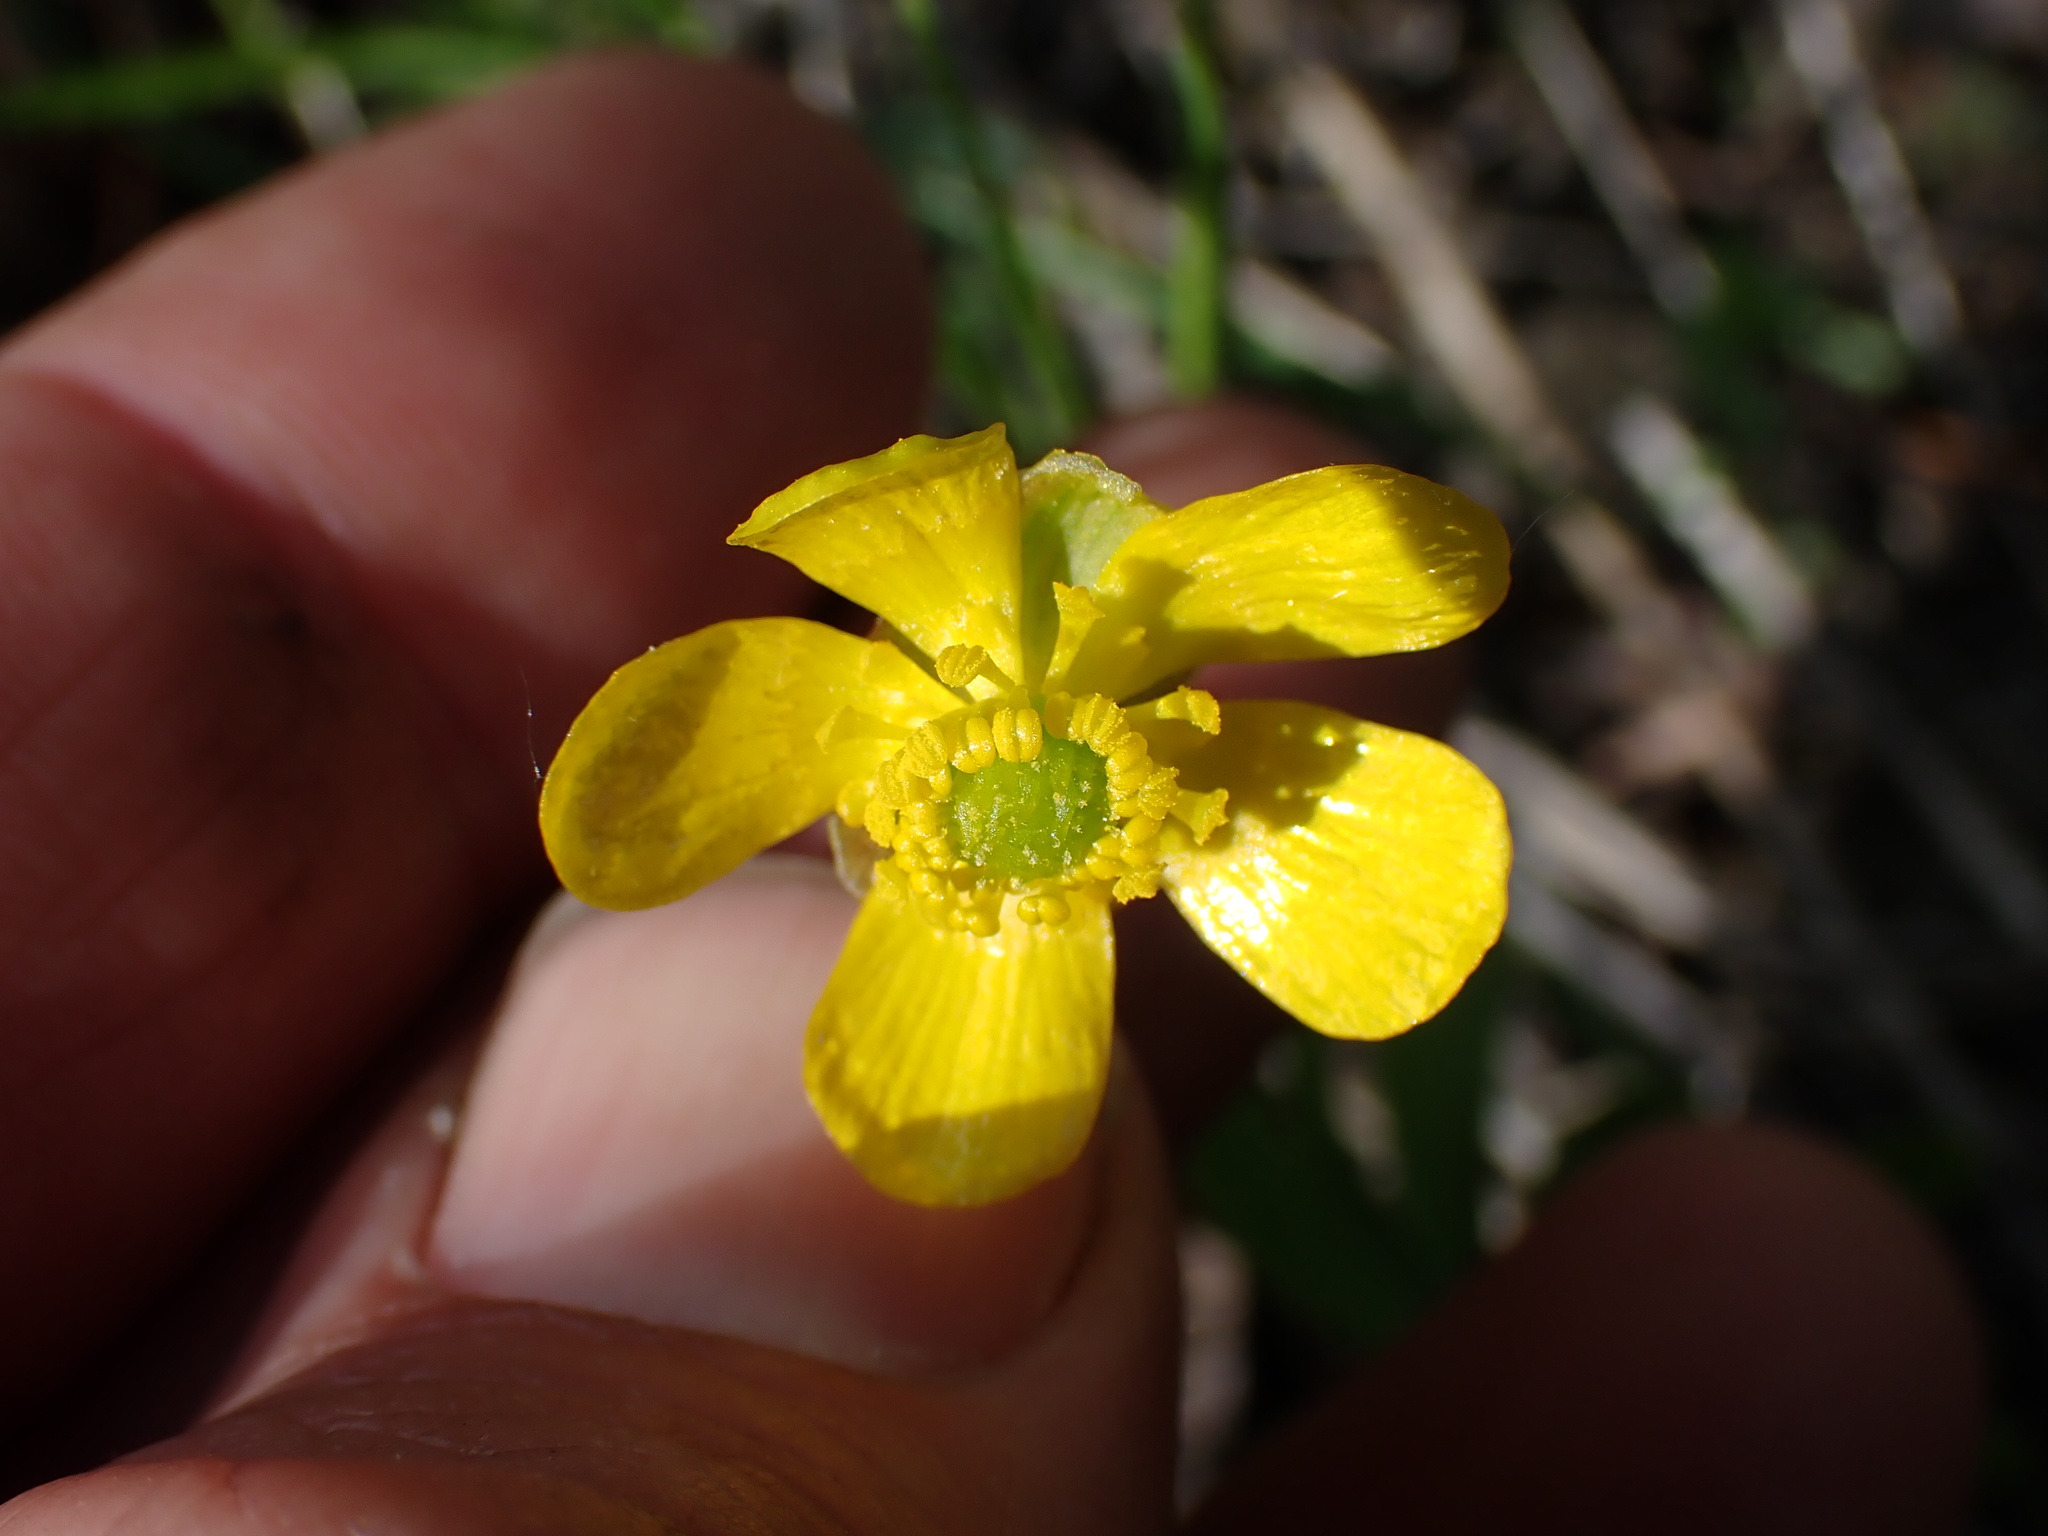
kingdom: Plantae
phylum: Tracheophyta
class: Magnoliopsida
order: Ranunculales
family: Ranunculaceae
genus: Ranunculus
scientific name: Ranunculus glaberrimus
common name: Sagebrush buttercup
